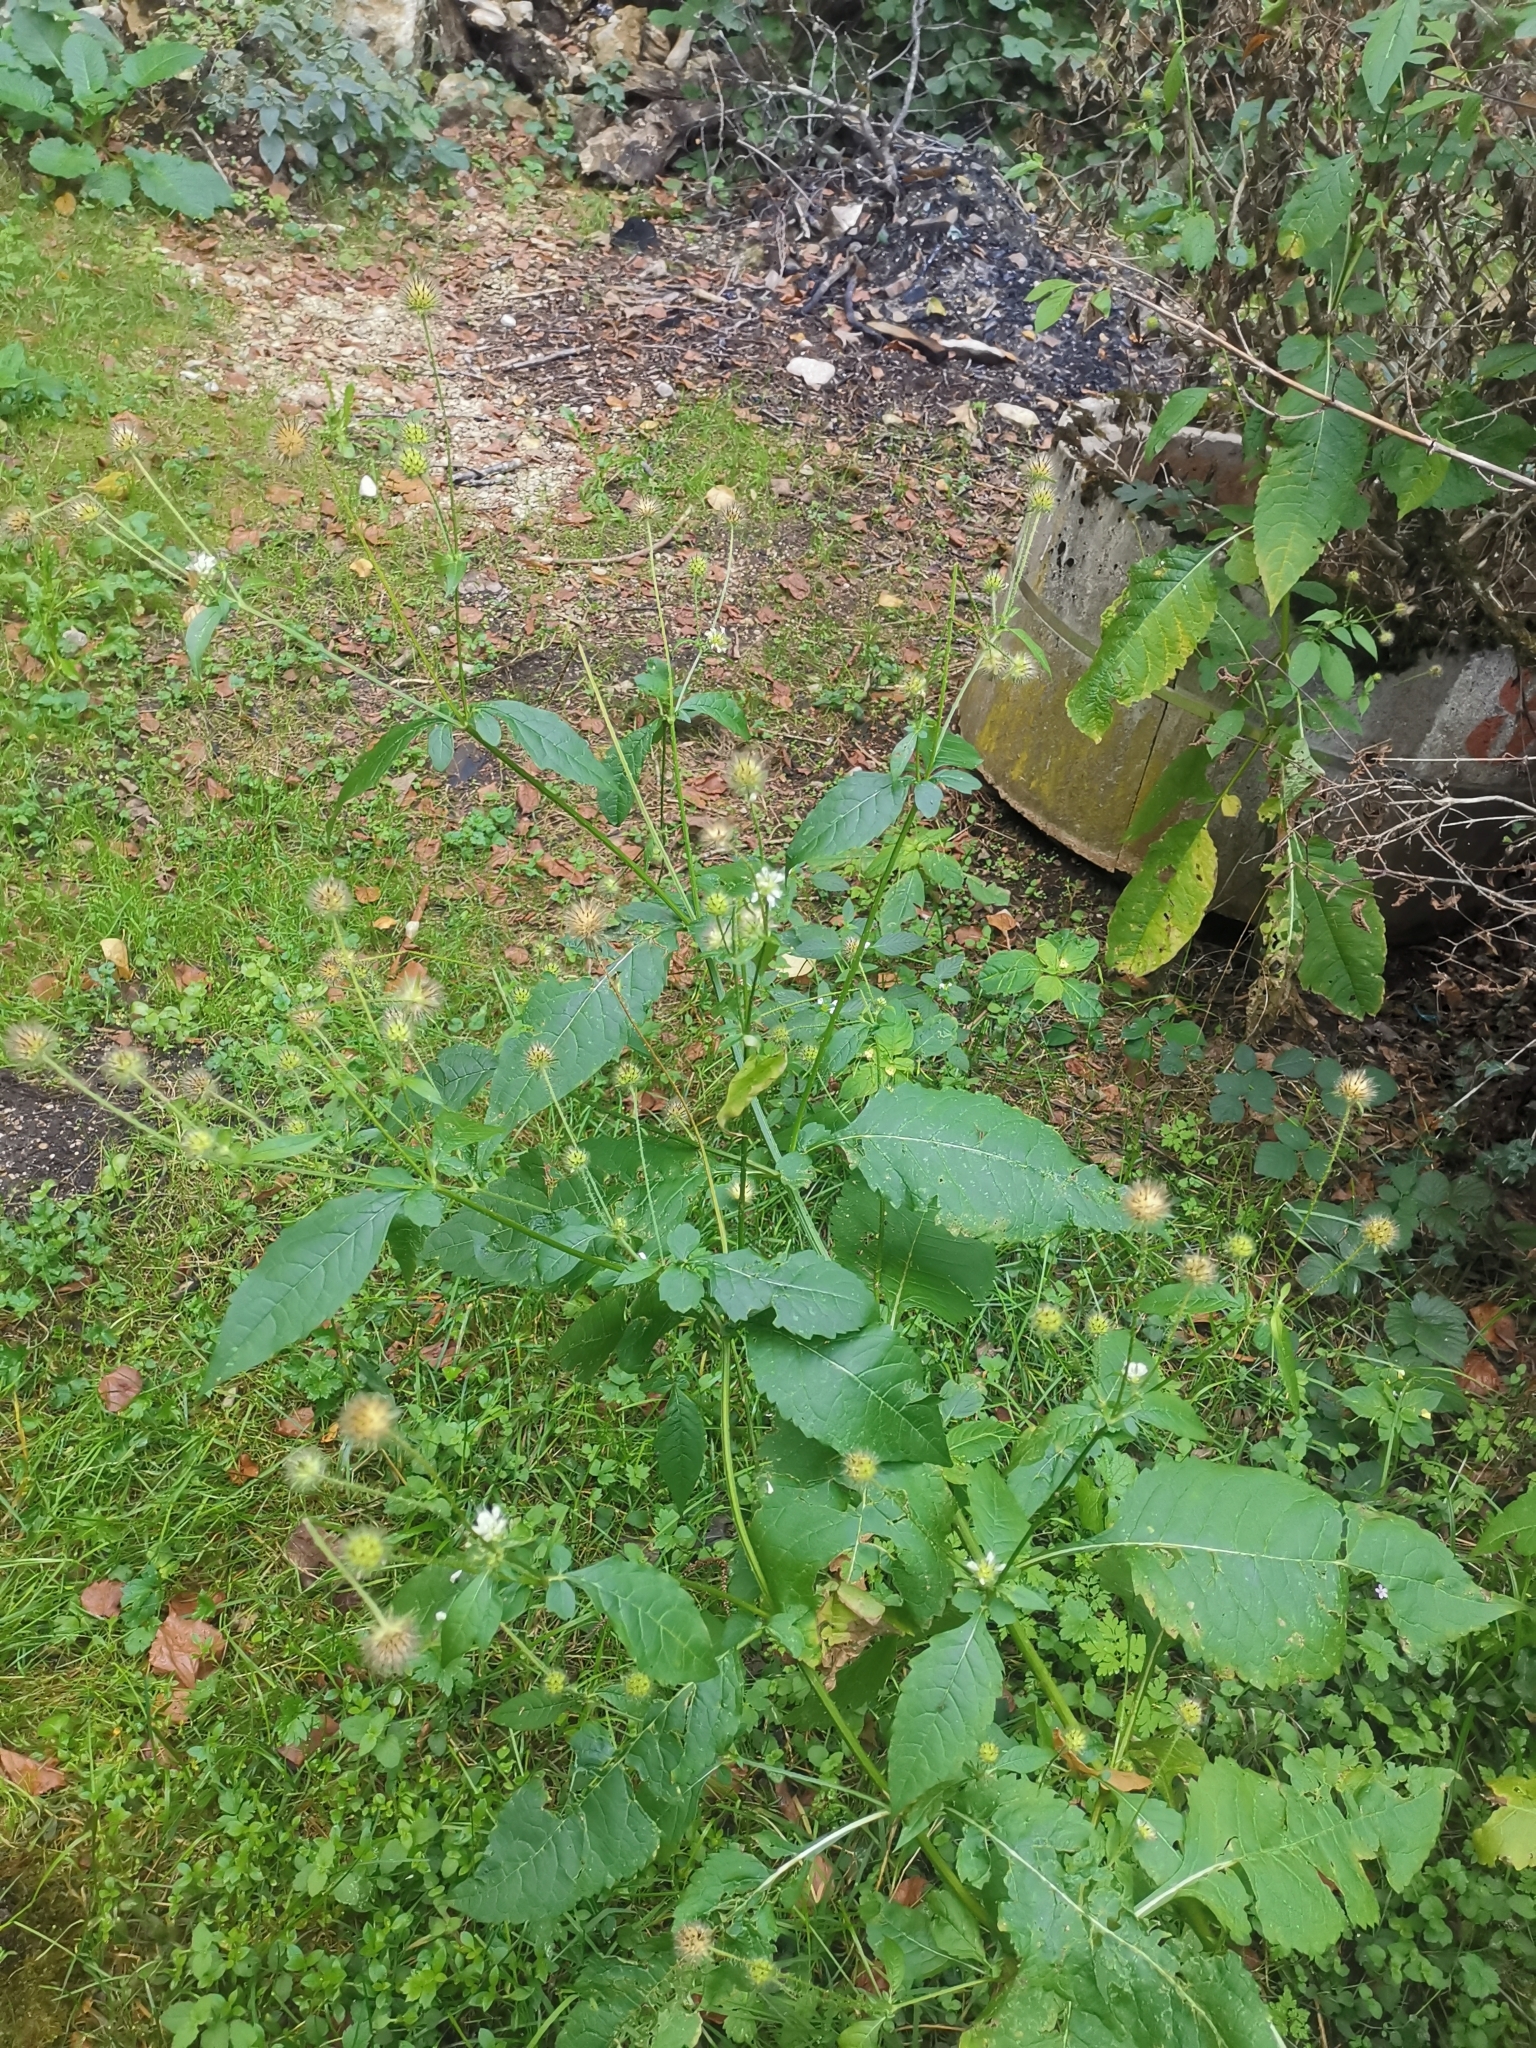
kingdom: Plantae
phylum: Tracheophyta
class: Magnoliopsida
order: Dipsacales
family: Caprifoliaceae
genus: Dipsacus
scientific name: Dipsacus pilosus
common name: Small teasel
